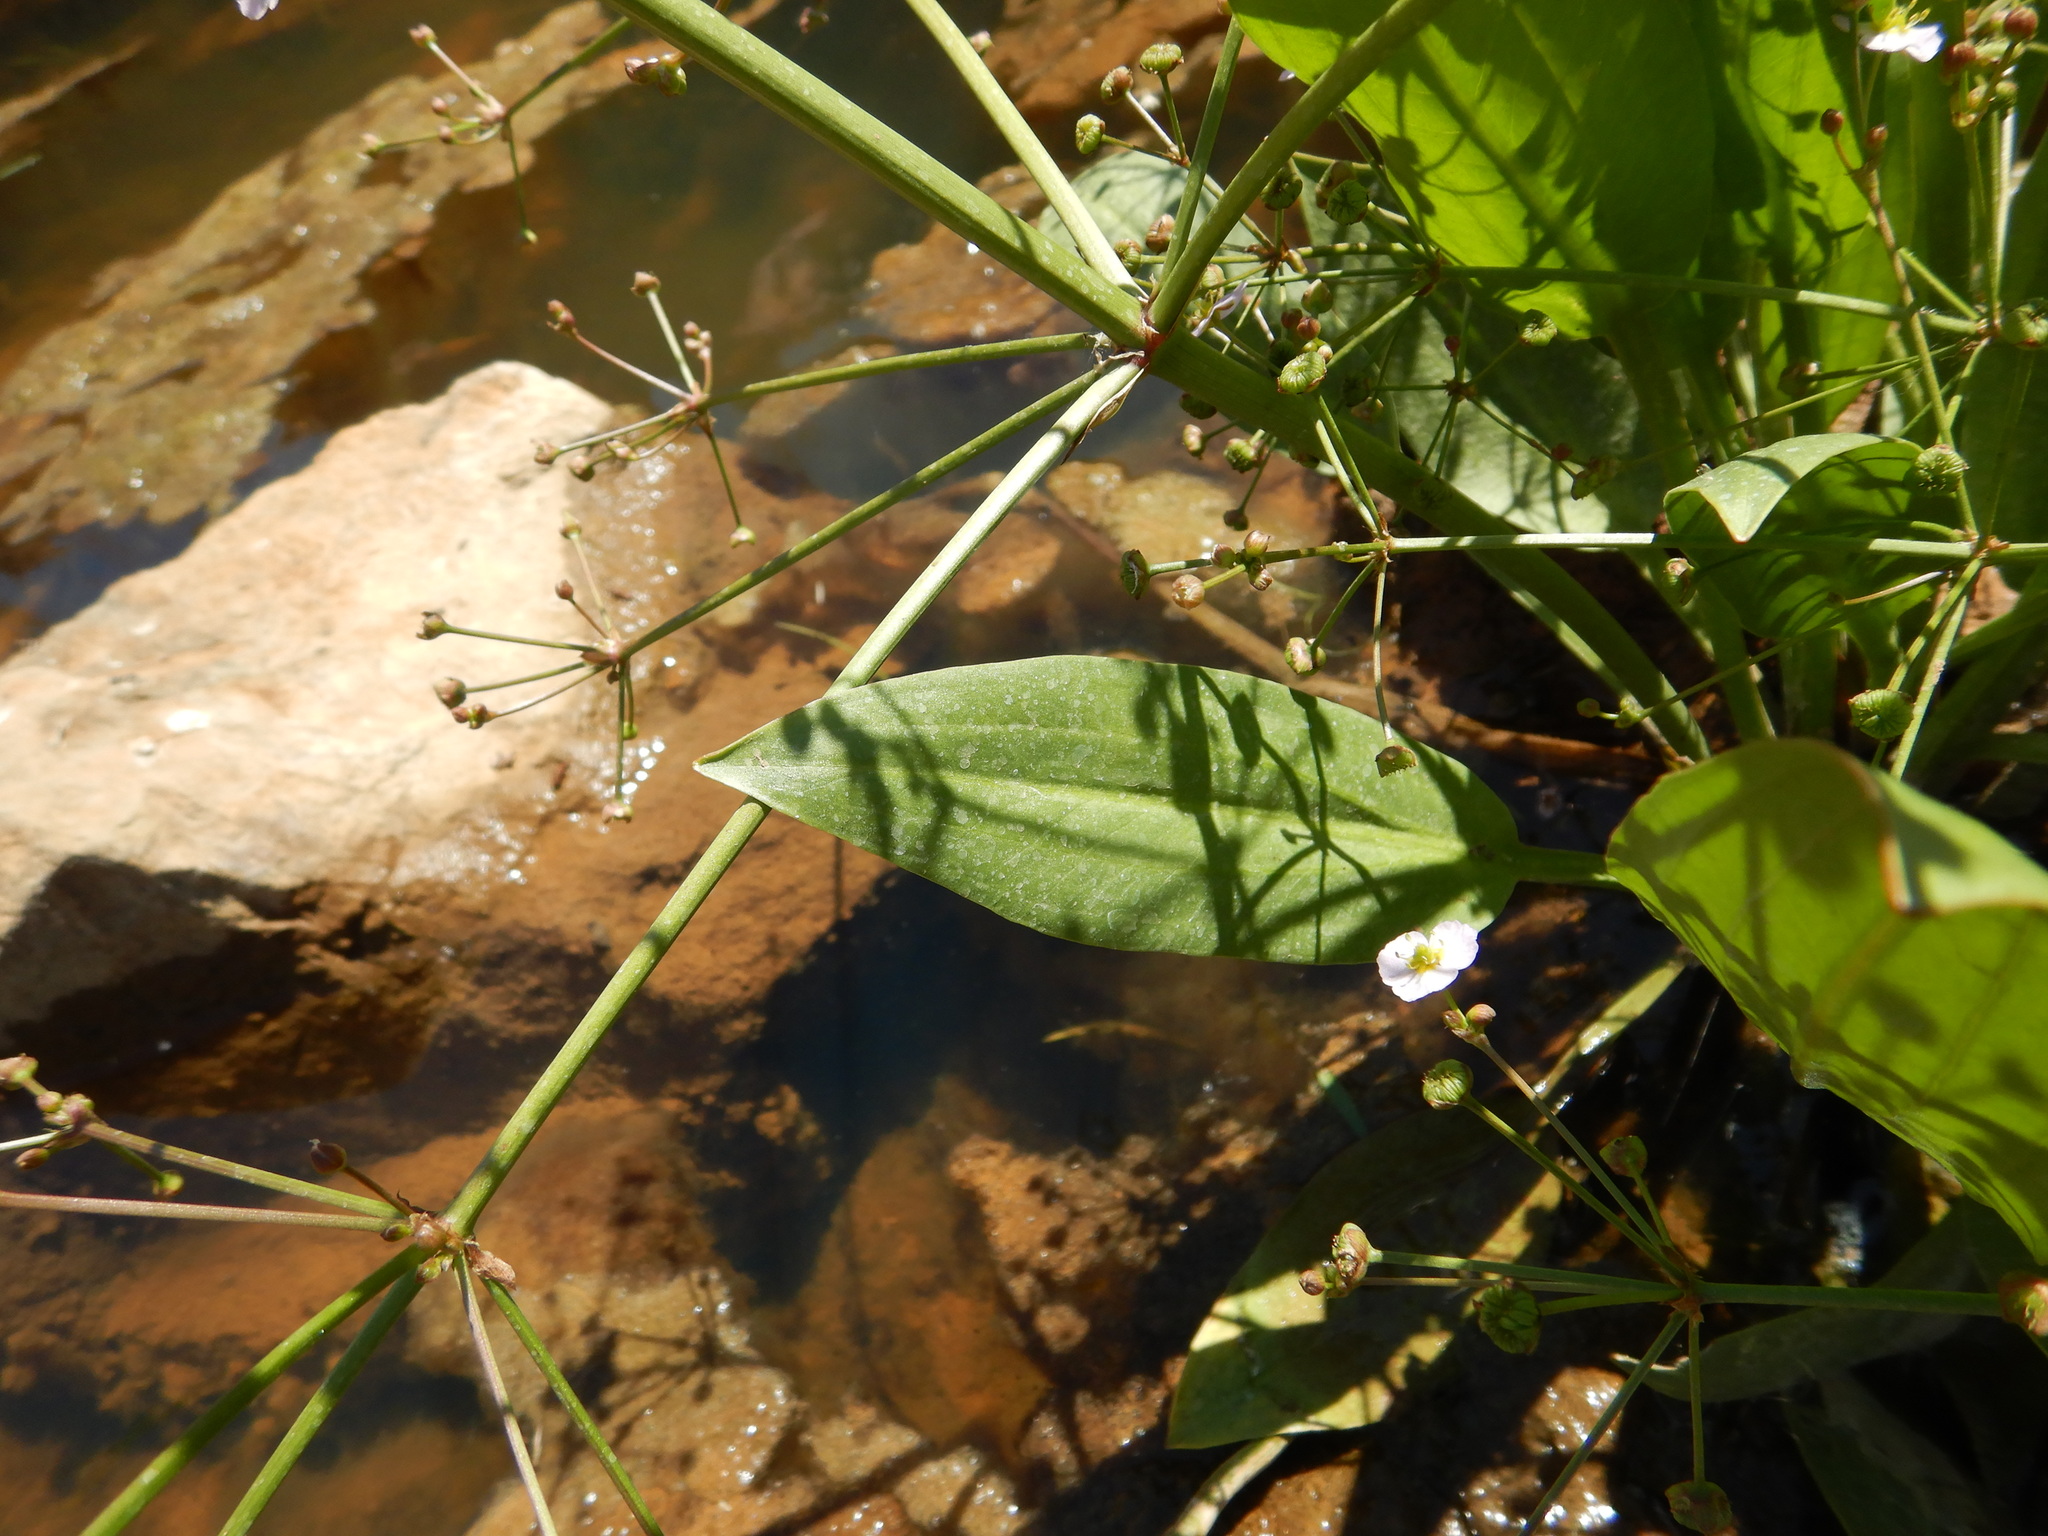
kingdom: Plantae
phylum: Tracheophyta
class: Liliopsida
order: Alismatales
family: Alismataceae
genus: Alisma
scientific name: Alisma lanceolatum
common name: Narrow-leaved water-plantain
